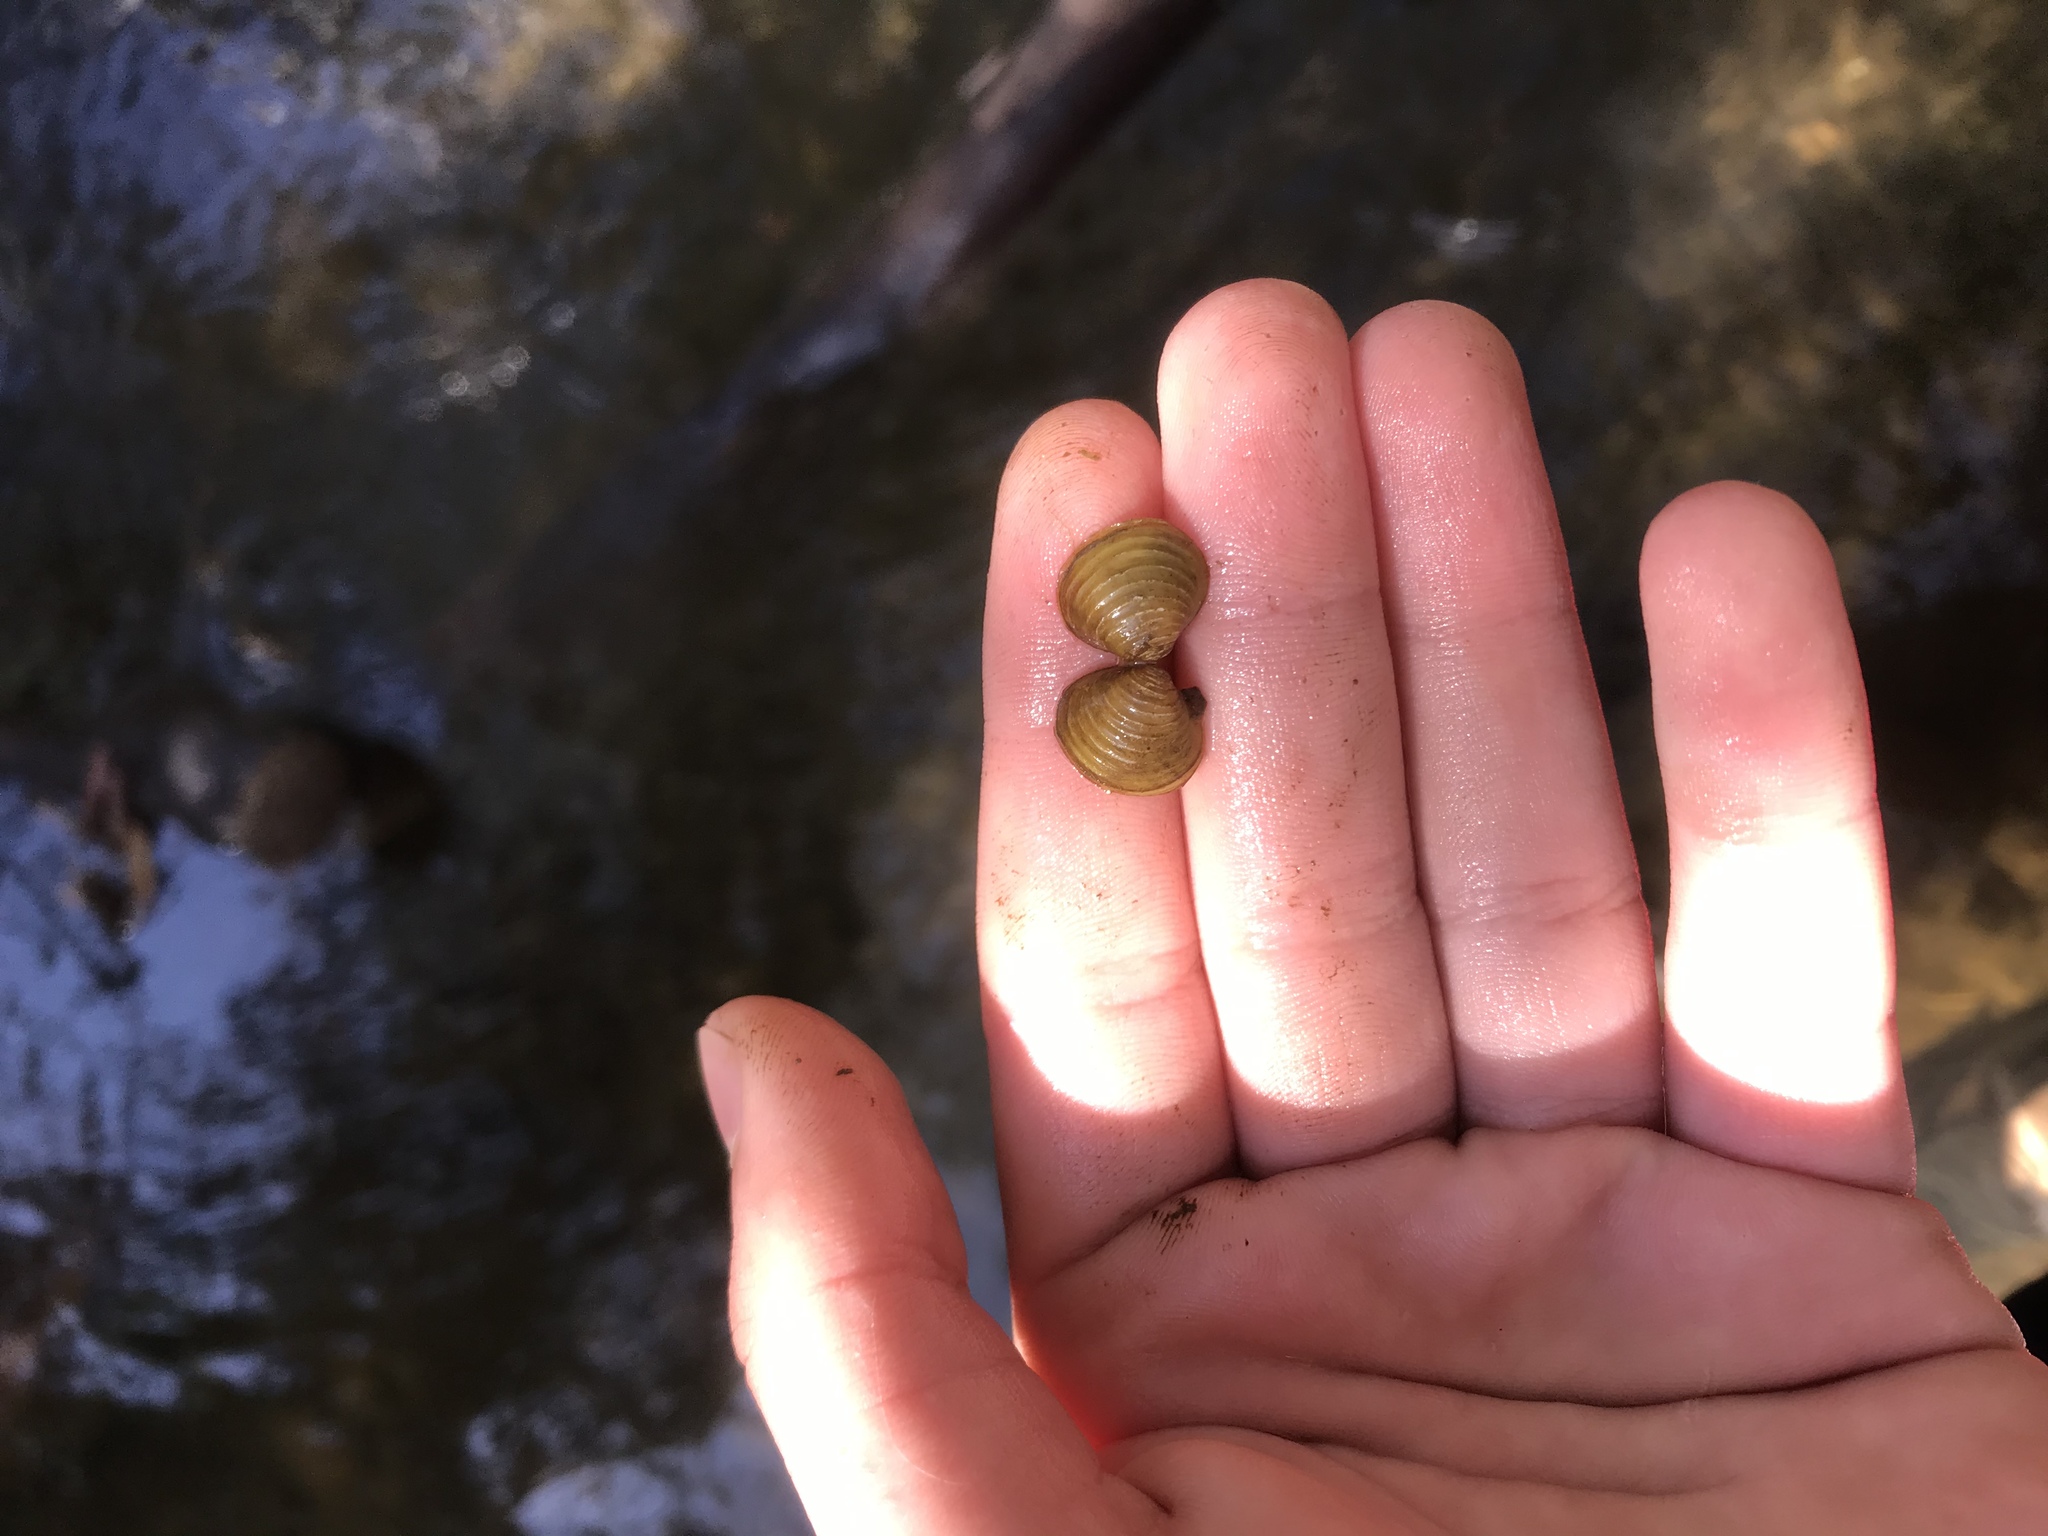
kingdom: Animalia
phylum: Mollusca
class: Bivalvia
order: Venerida
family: Cyrenidae
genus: Corbicula
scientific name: Corbicula fluminea
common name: Asian clam
